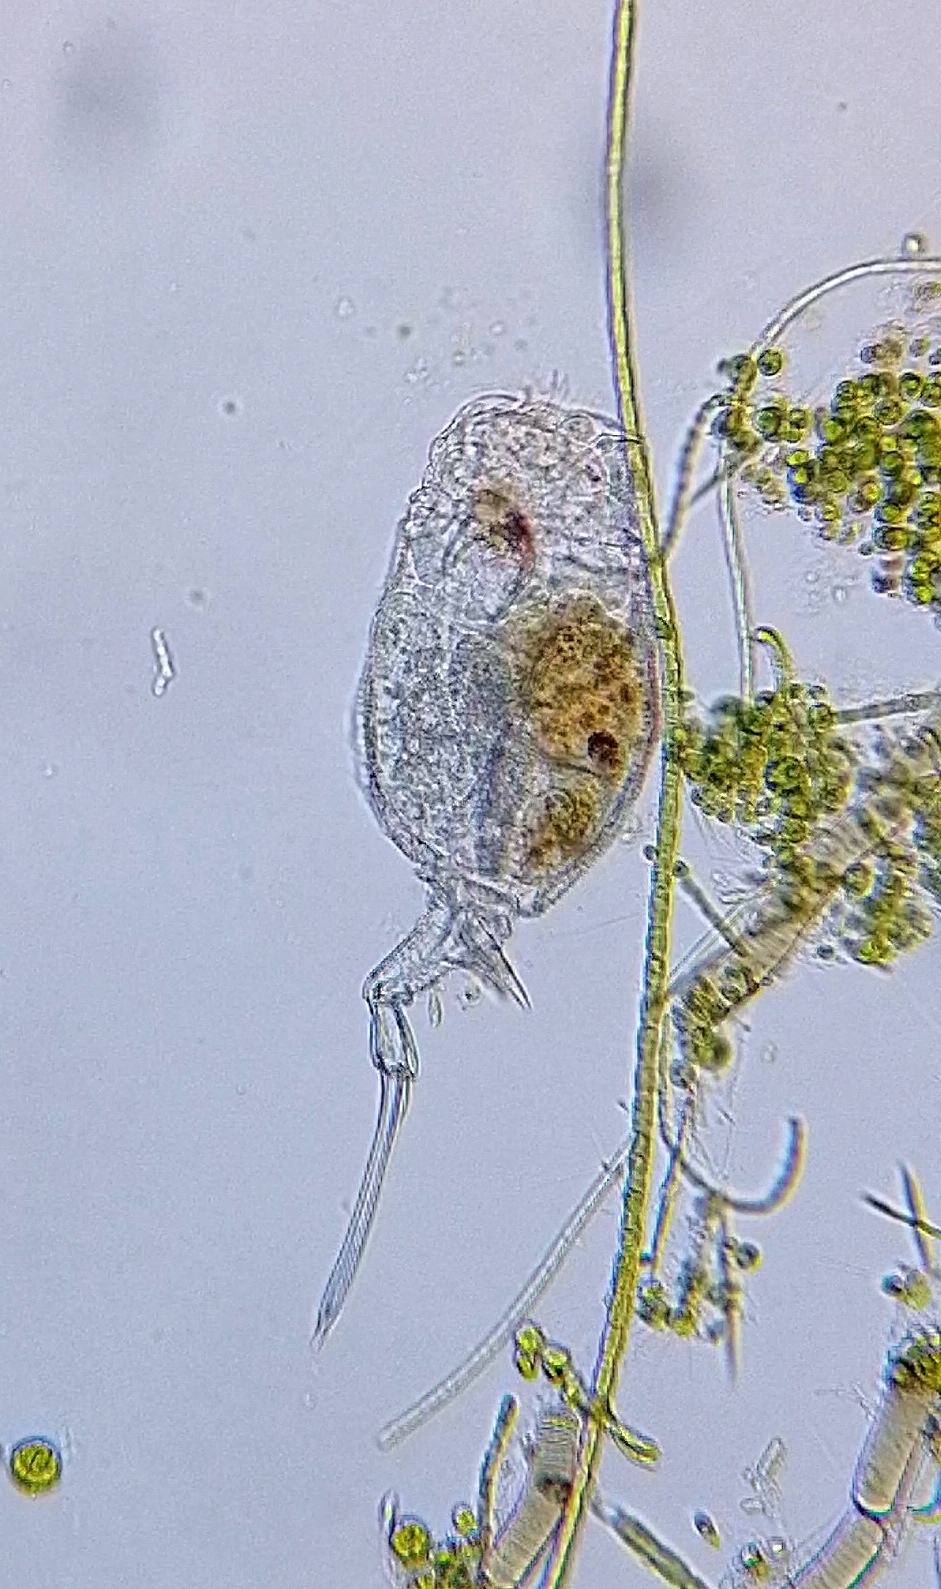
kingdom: Animalia
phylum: Rotifera
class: Eurotatoria
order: Ploima
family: Trichotriidae
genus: Trichotria
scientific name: Trichotria pocillum
